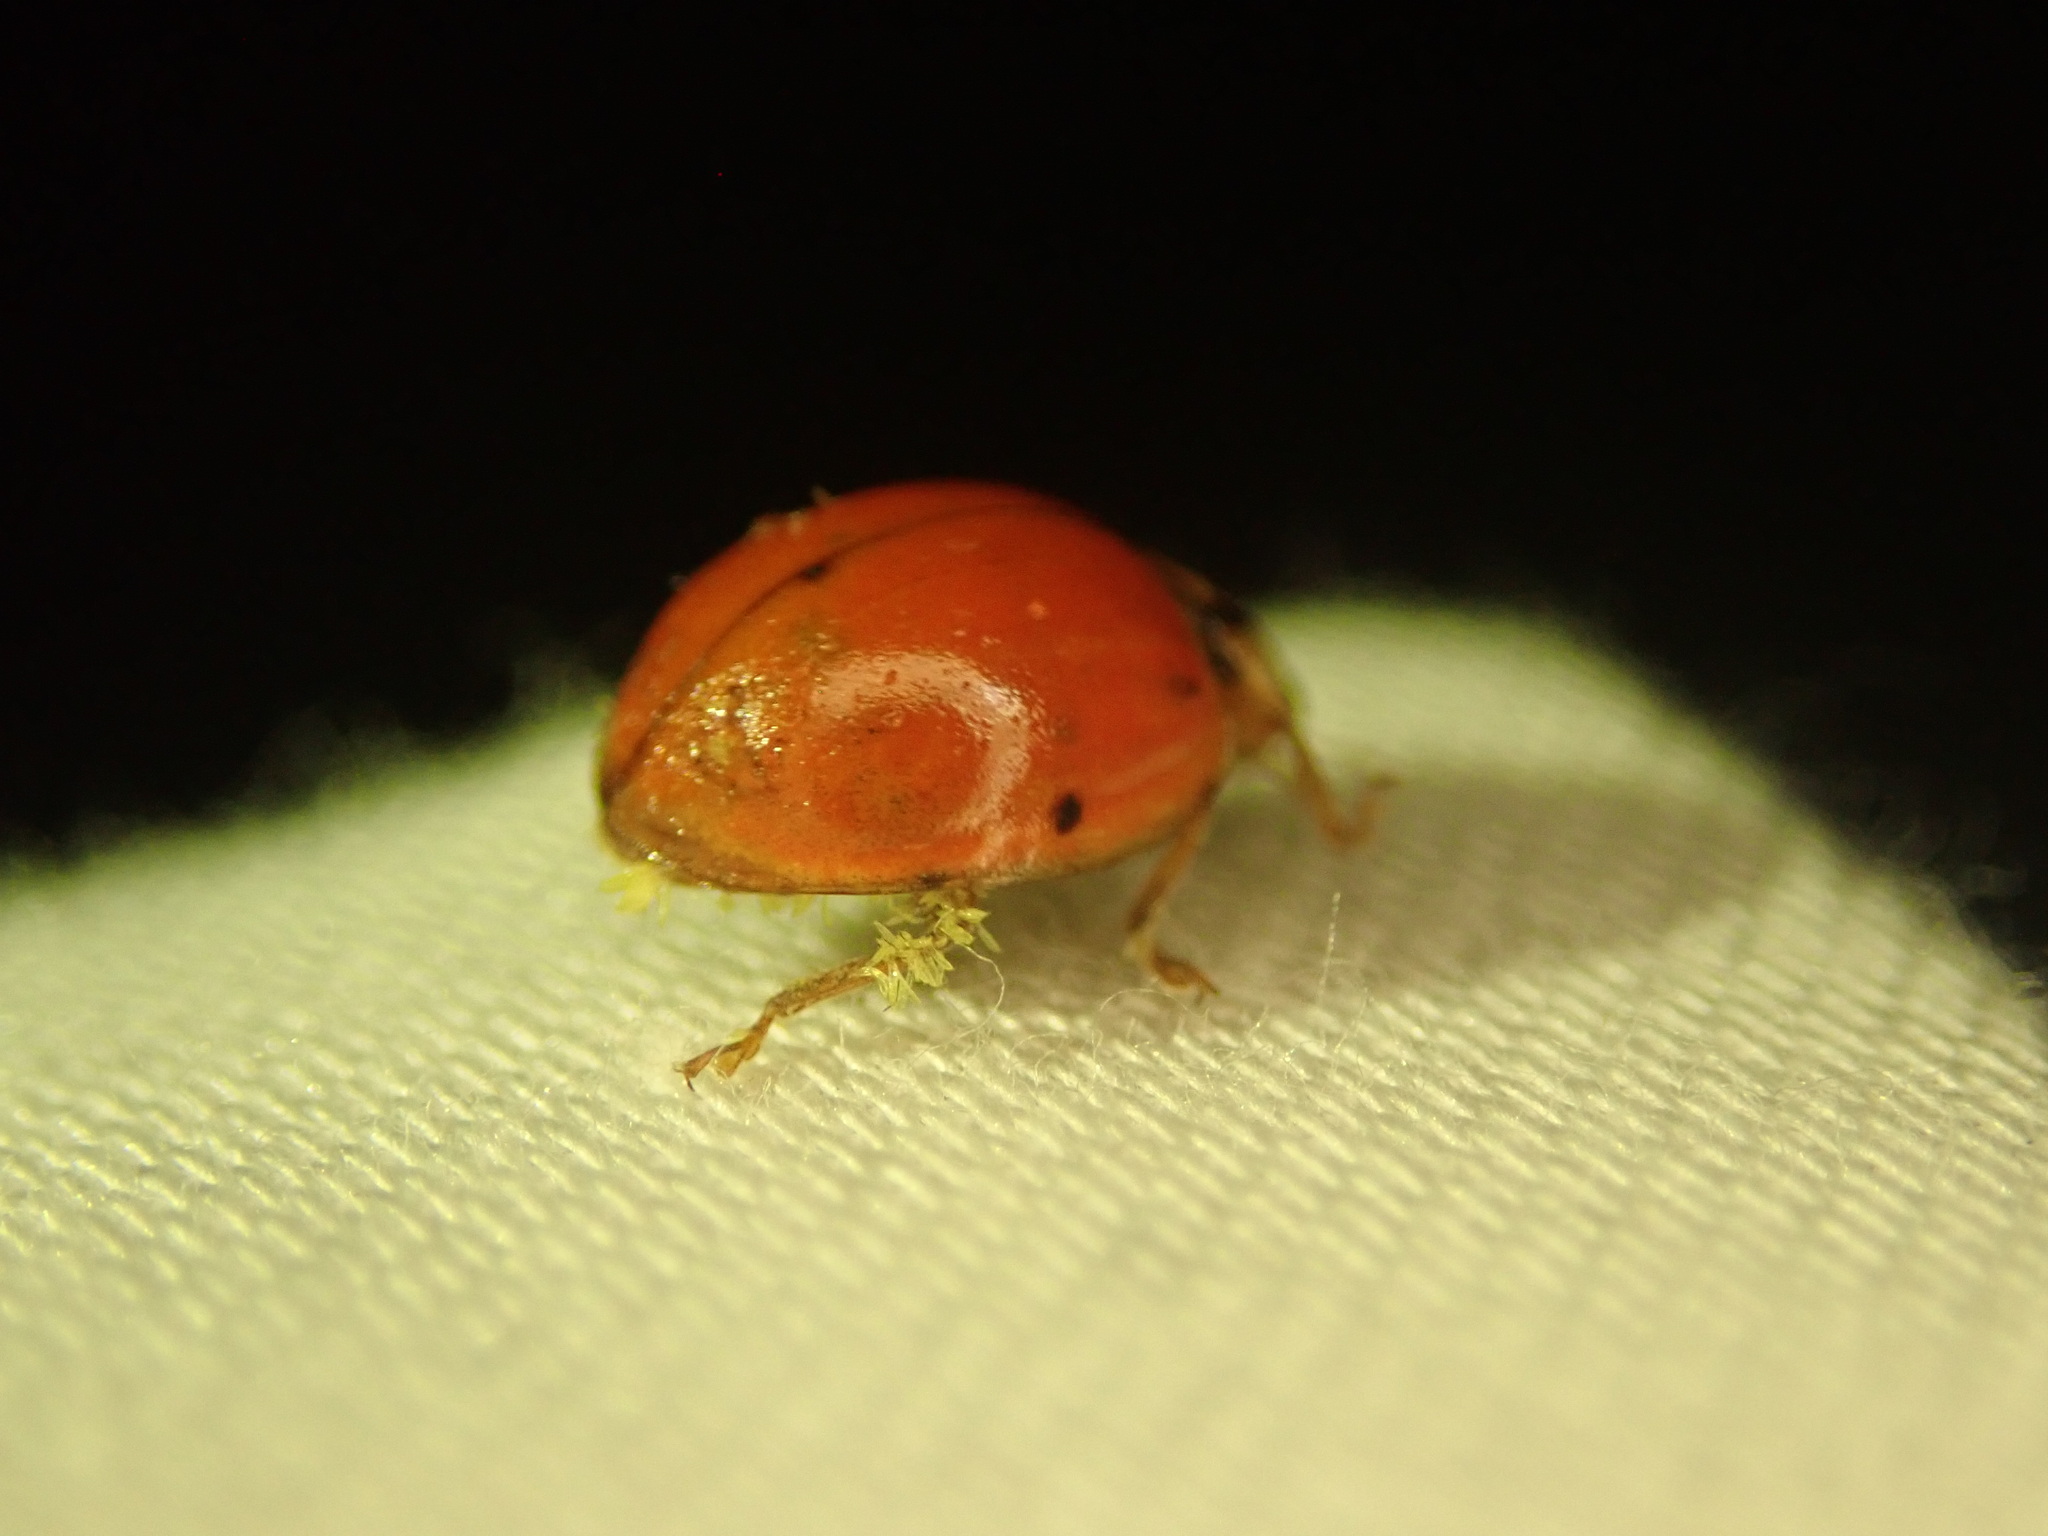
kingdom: Fungi
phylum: Ascomycota
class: Laboulbeniomycetes
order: Laboulbeniales
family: Laboulbeniaceae
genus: Hesperomyces
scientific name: Hesperomyces harmoniae
